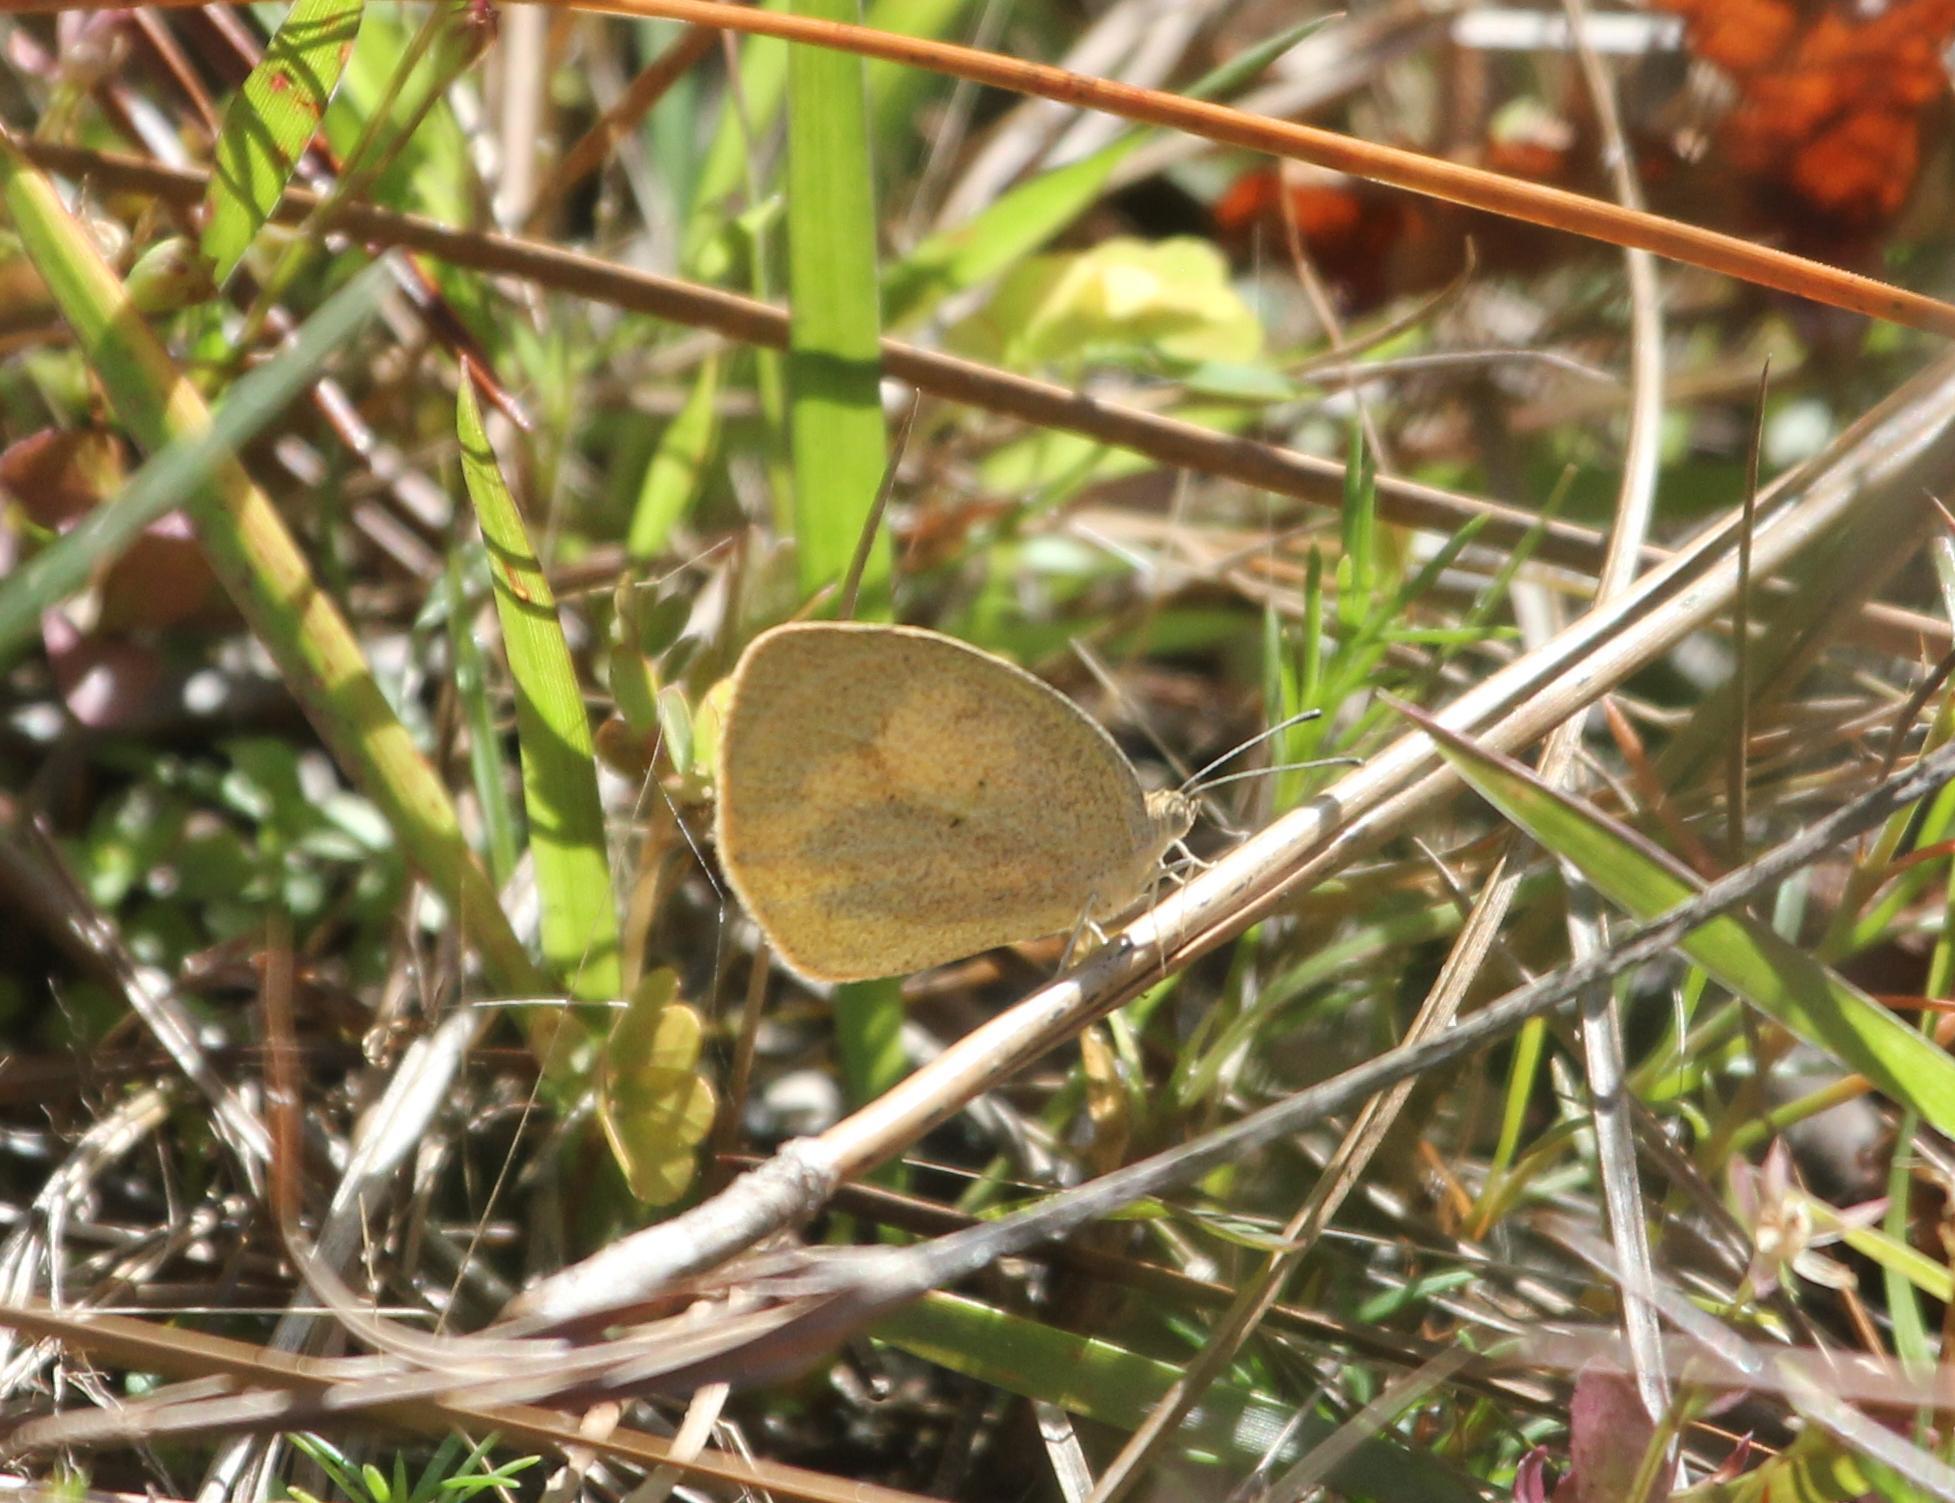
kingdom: Animalia
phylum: Arthropoda
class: Insecta
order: Lepidoptera
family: Pieridae
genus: Eurema
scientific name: Eurema daira
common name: Barred sulphur
